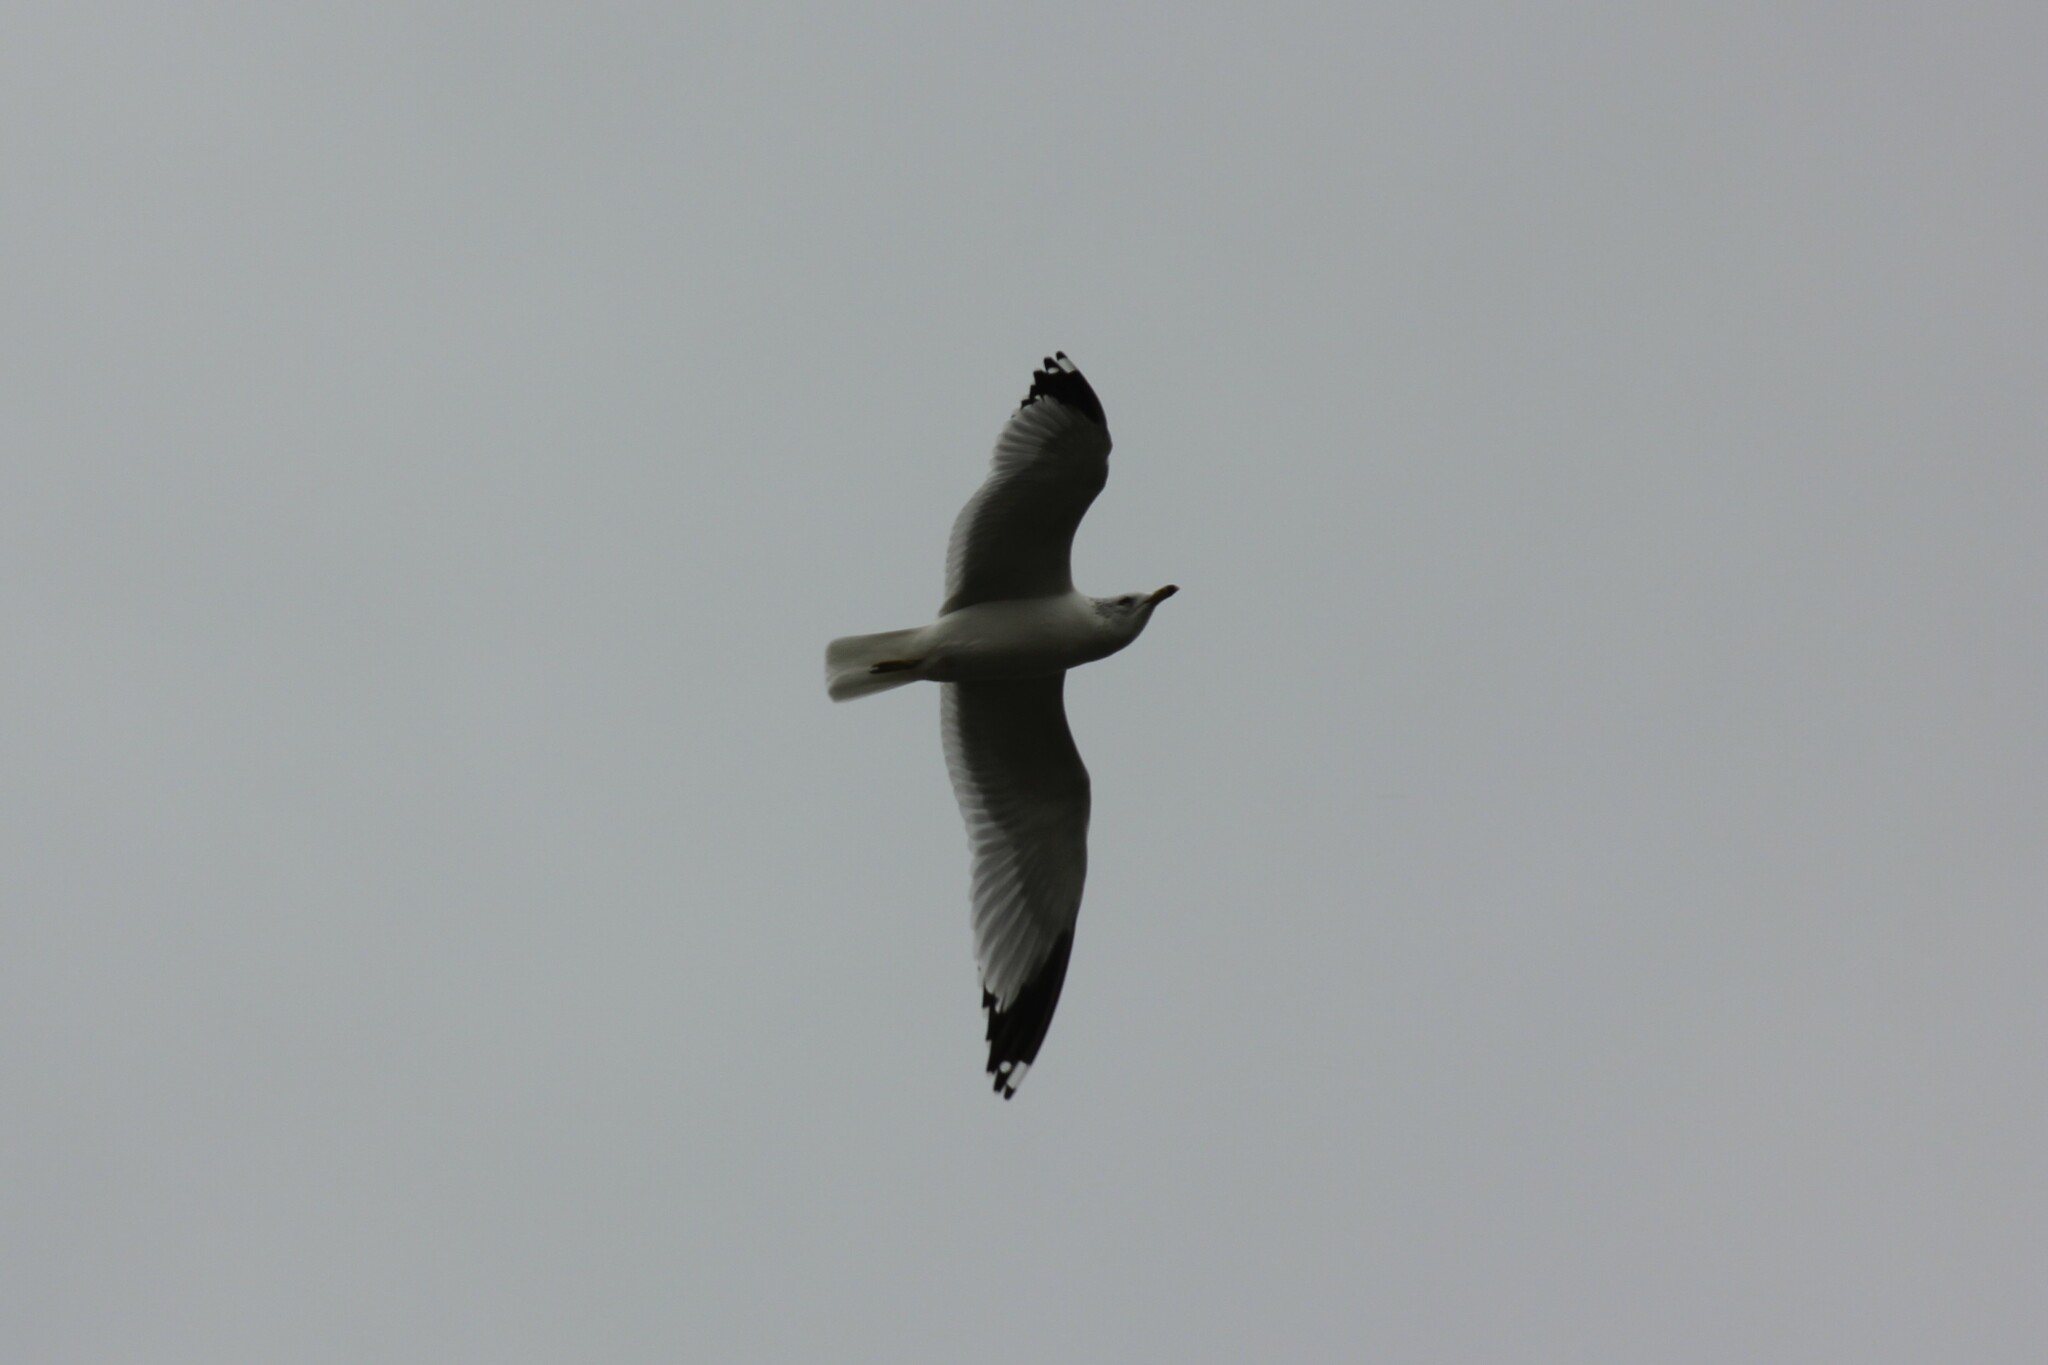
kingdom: Animalia
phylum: Chordata
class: Aves
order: Charadriiformes
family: Laridae
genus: Larus
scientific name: Larus delawarensis
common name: Ring-billed gull
